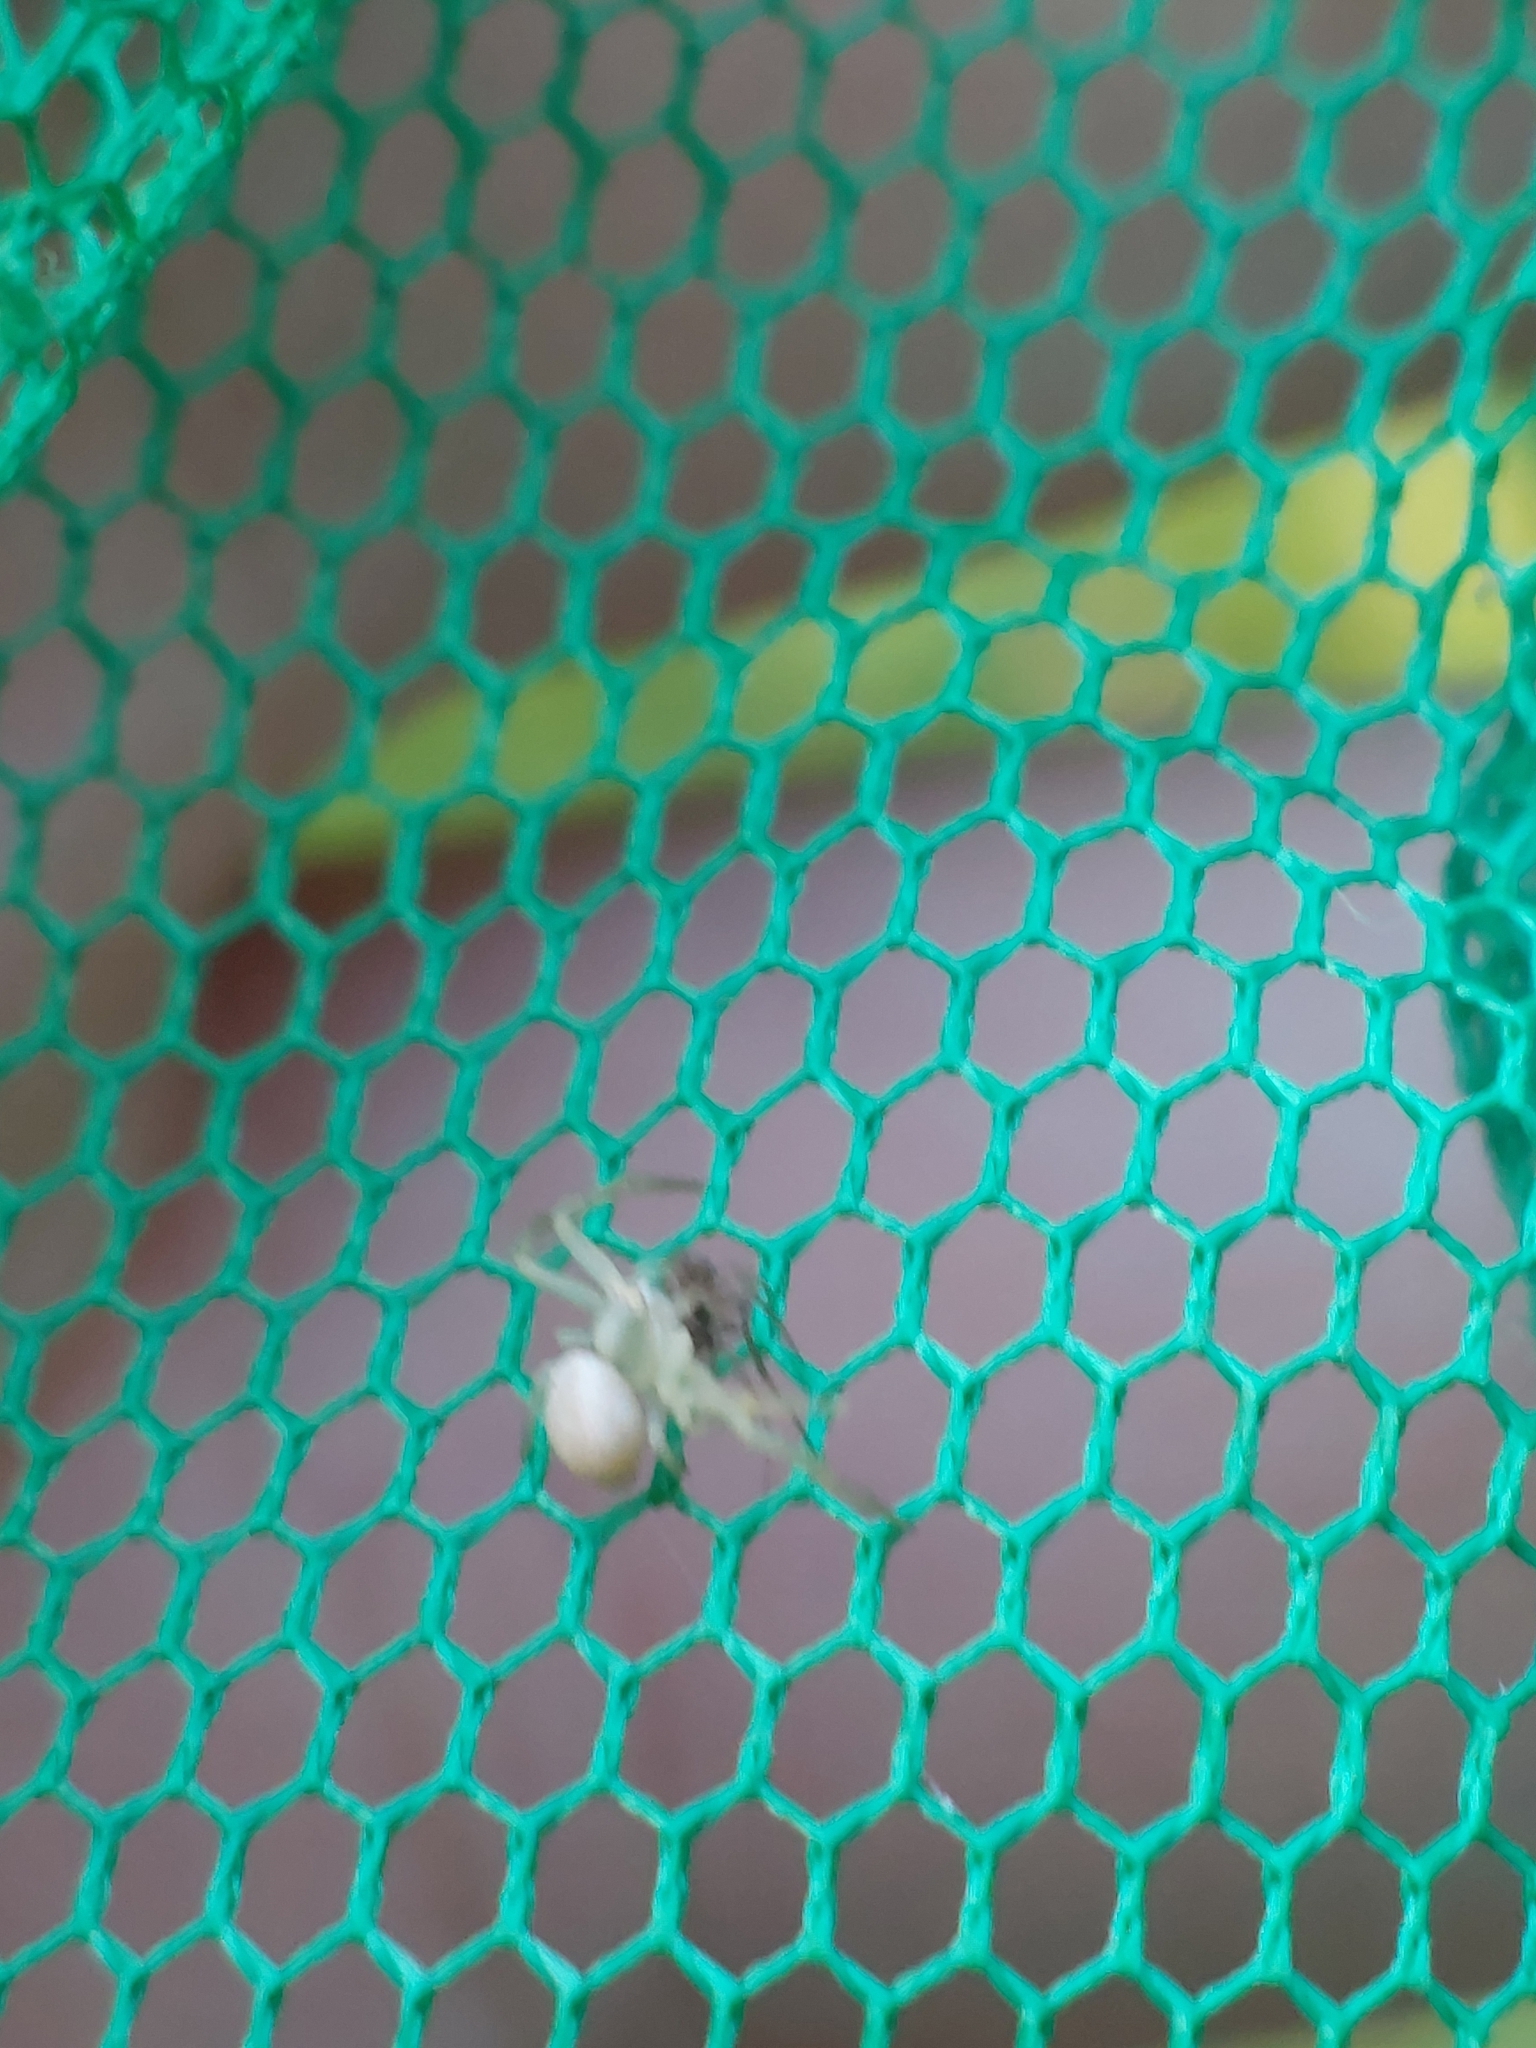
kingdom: Animalia
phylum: Arthropoda
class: Arachnida
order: Araneae
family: Thomisidae
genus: Misumena
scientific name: Misumena vatia
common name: Goldenrod crab spider
